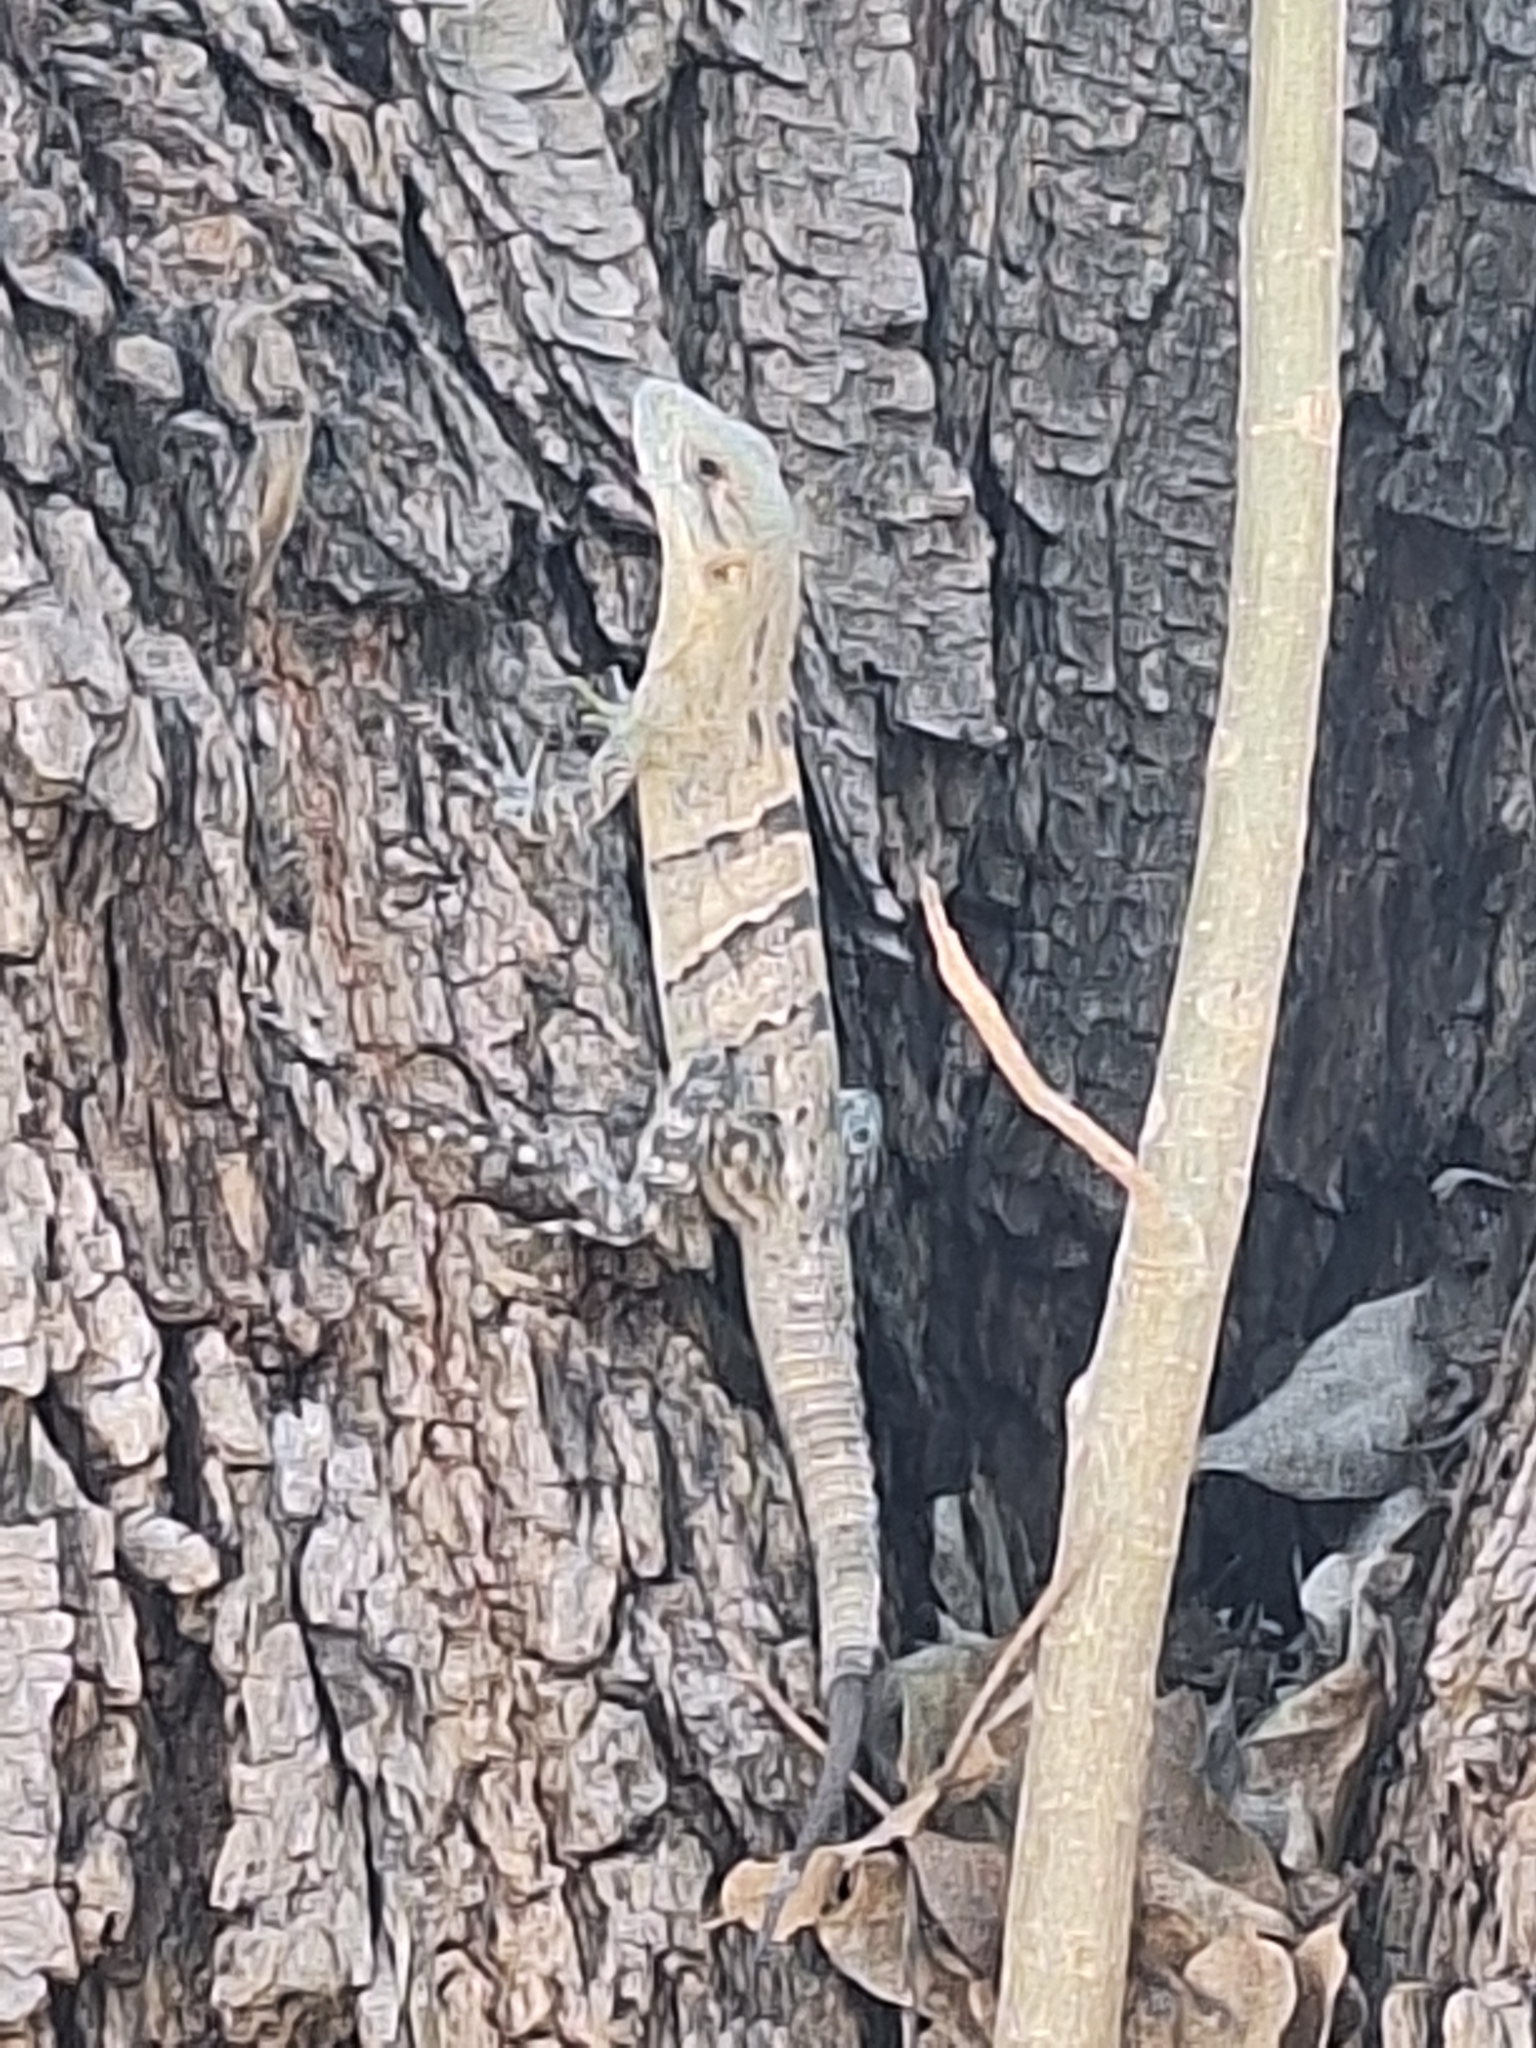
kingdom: Animalia
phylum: Chordata
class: Squamata
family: Iguanidae
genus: Ctenosaura
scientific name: Ctenosaura similis
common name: Black spiny-tailed iguana
